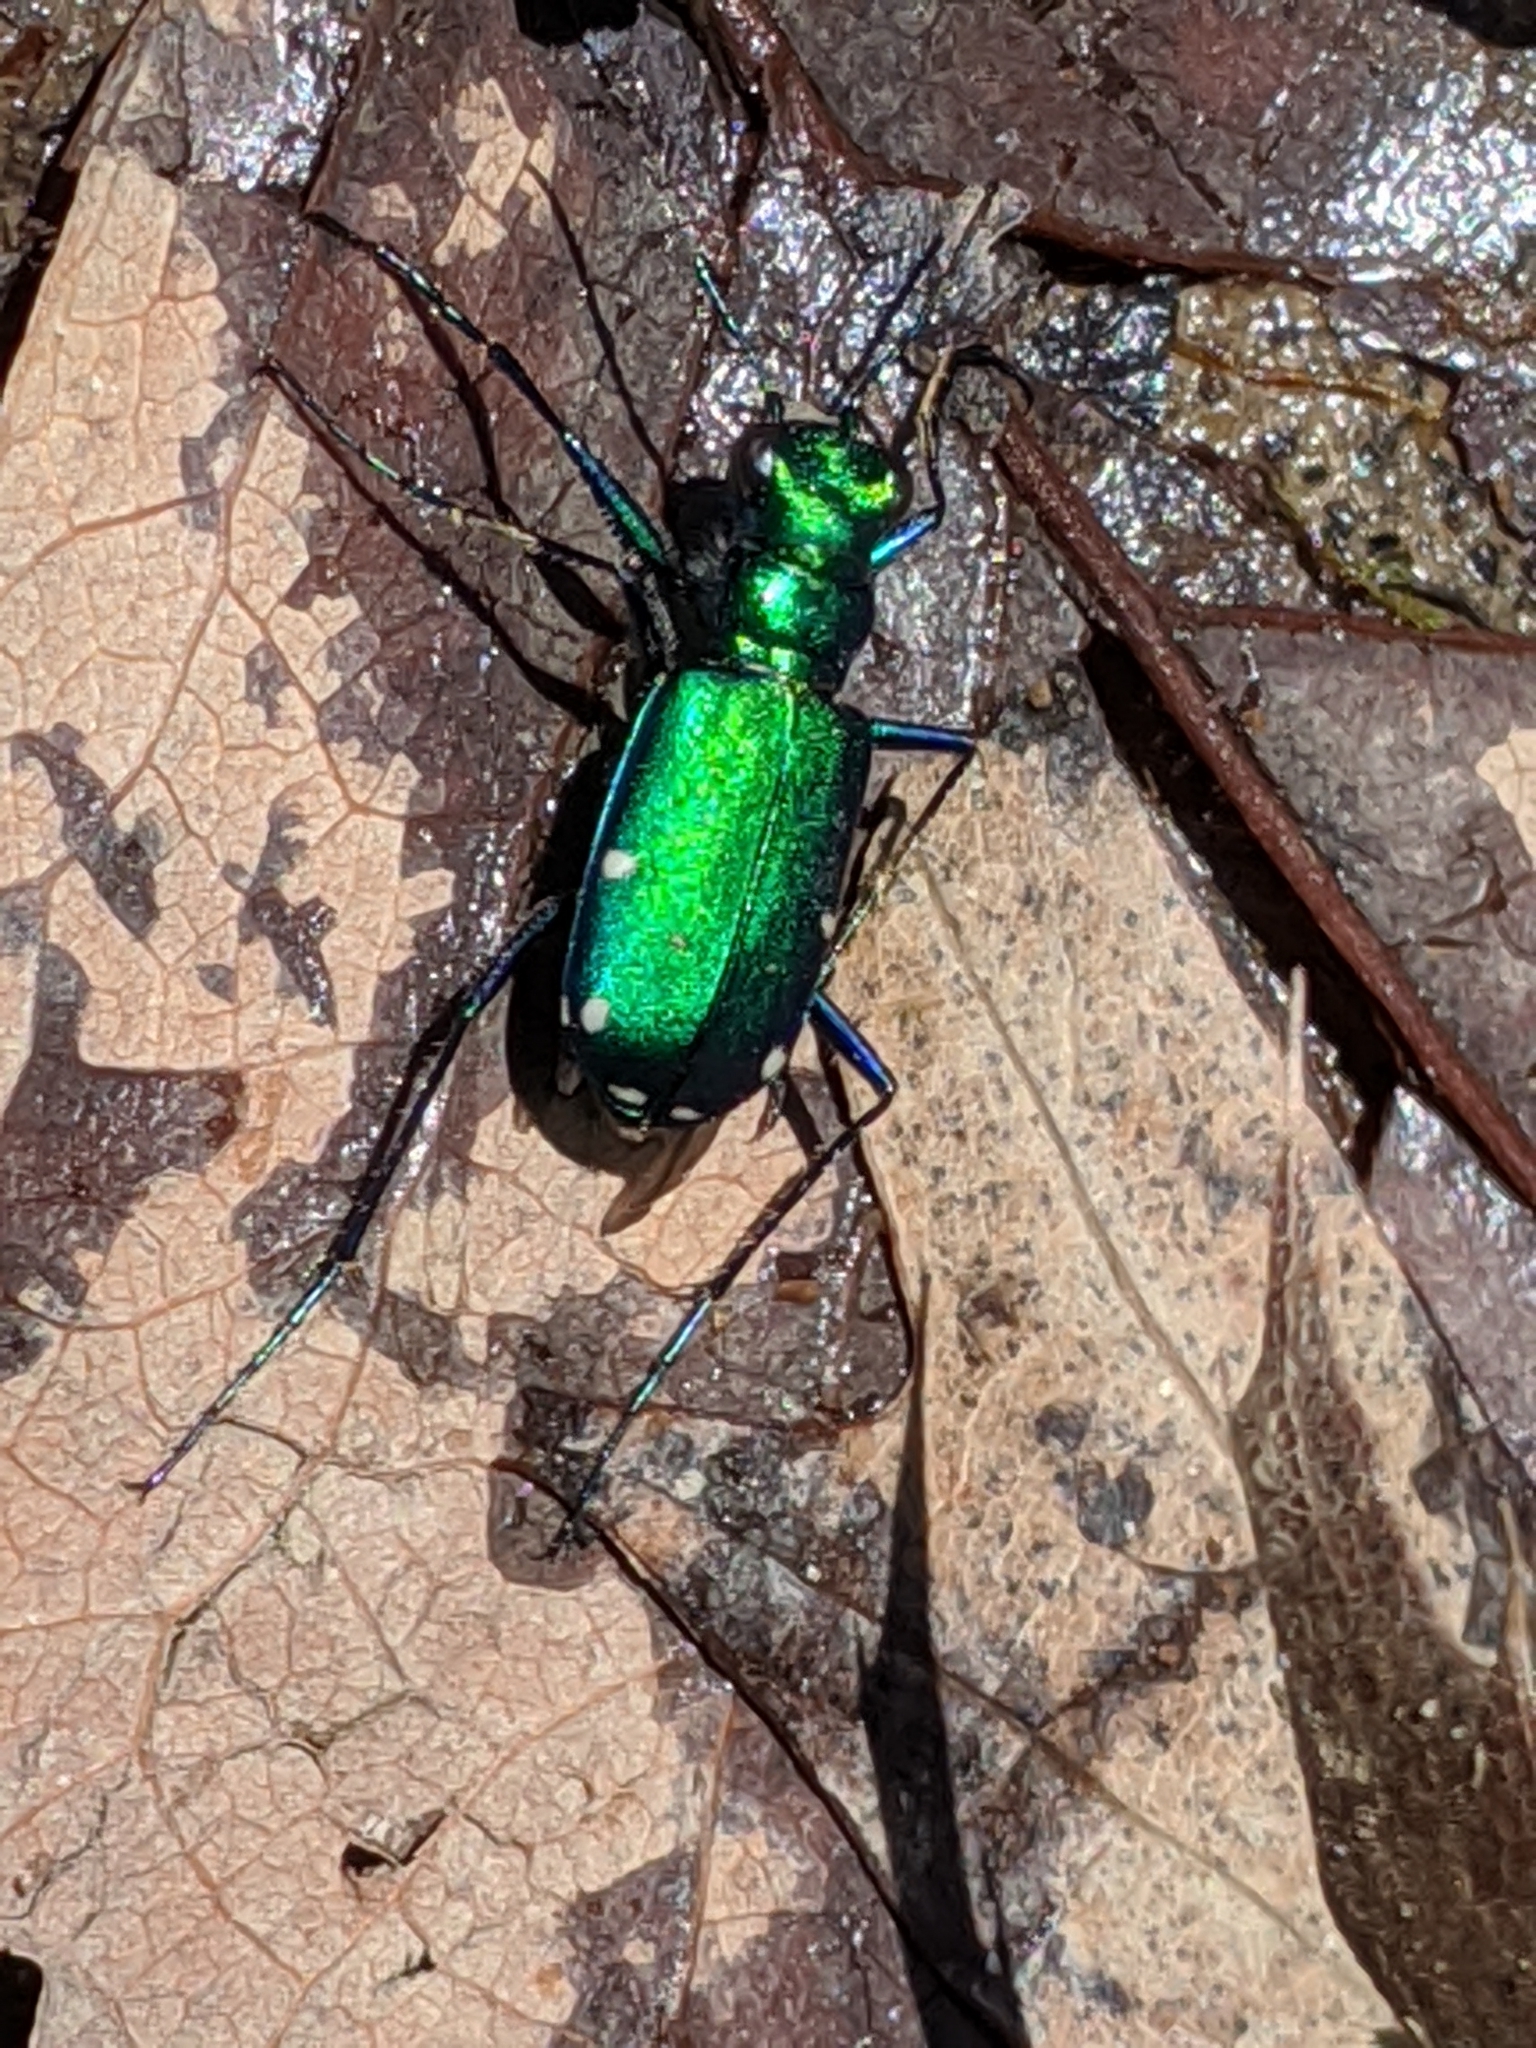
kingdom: Animalia
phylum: Arthropoda
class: Insecta
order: Coleoptera
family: Carabidae
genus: Cicindela
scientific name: Cicindela sexguttata
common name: Six-spotted tiger beetle
